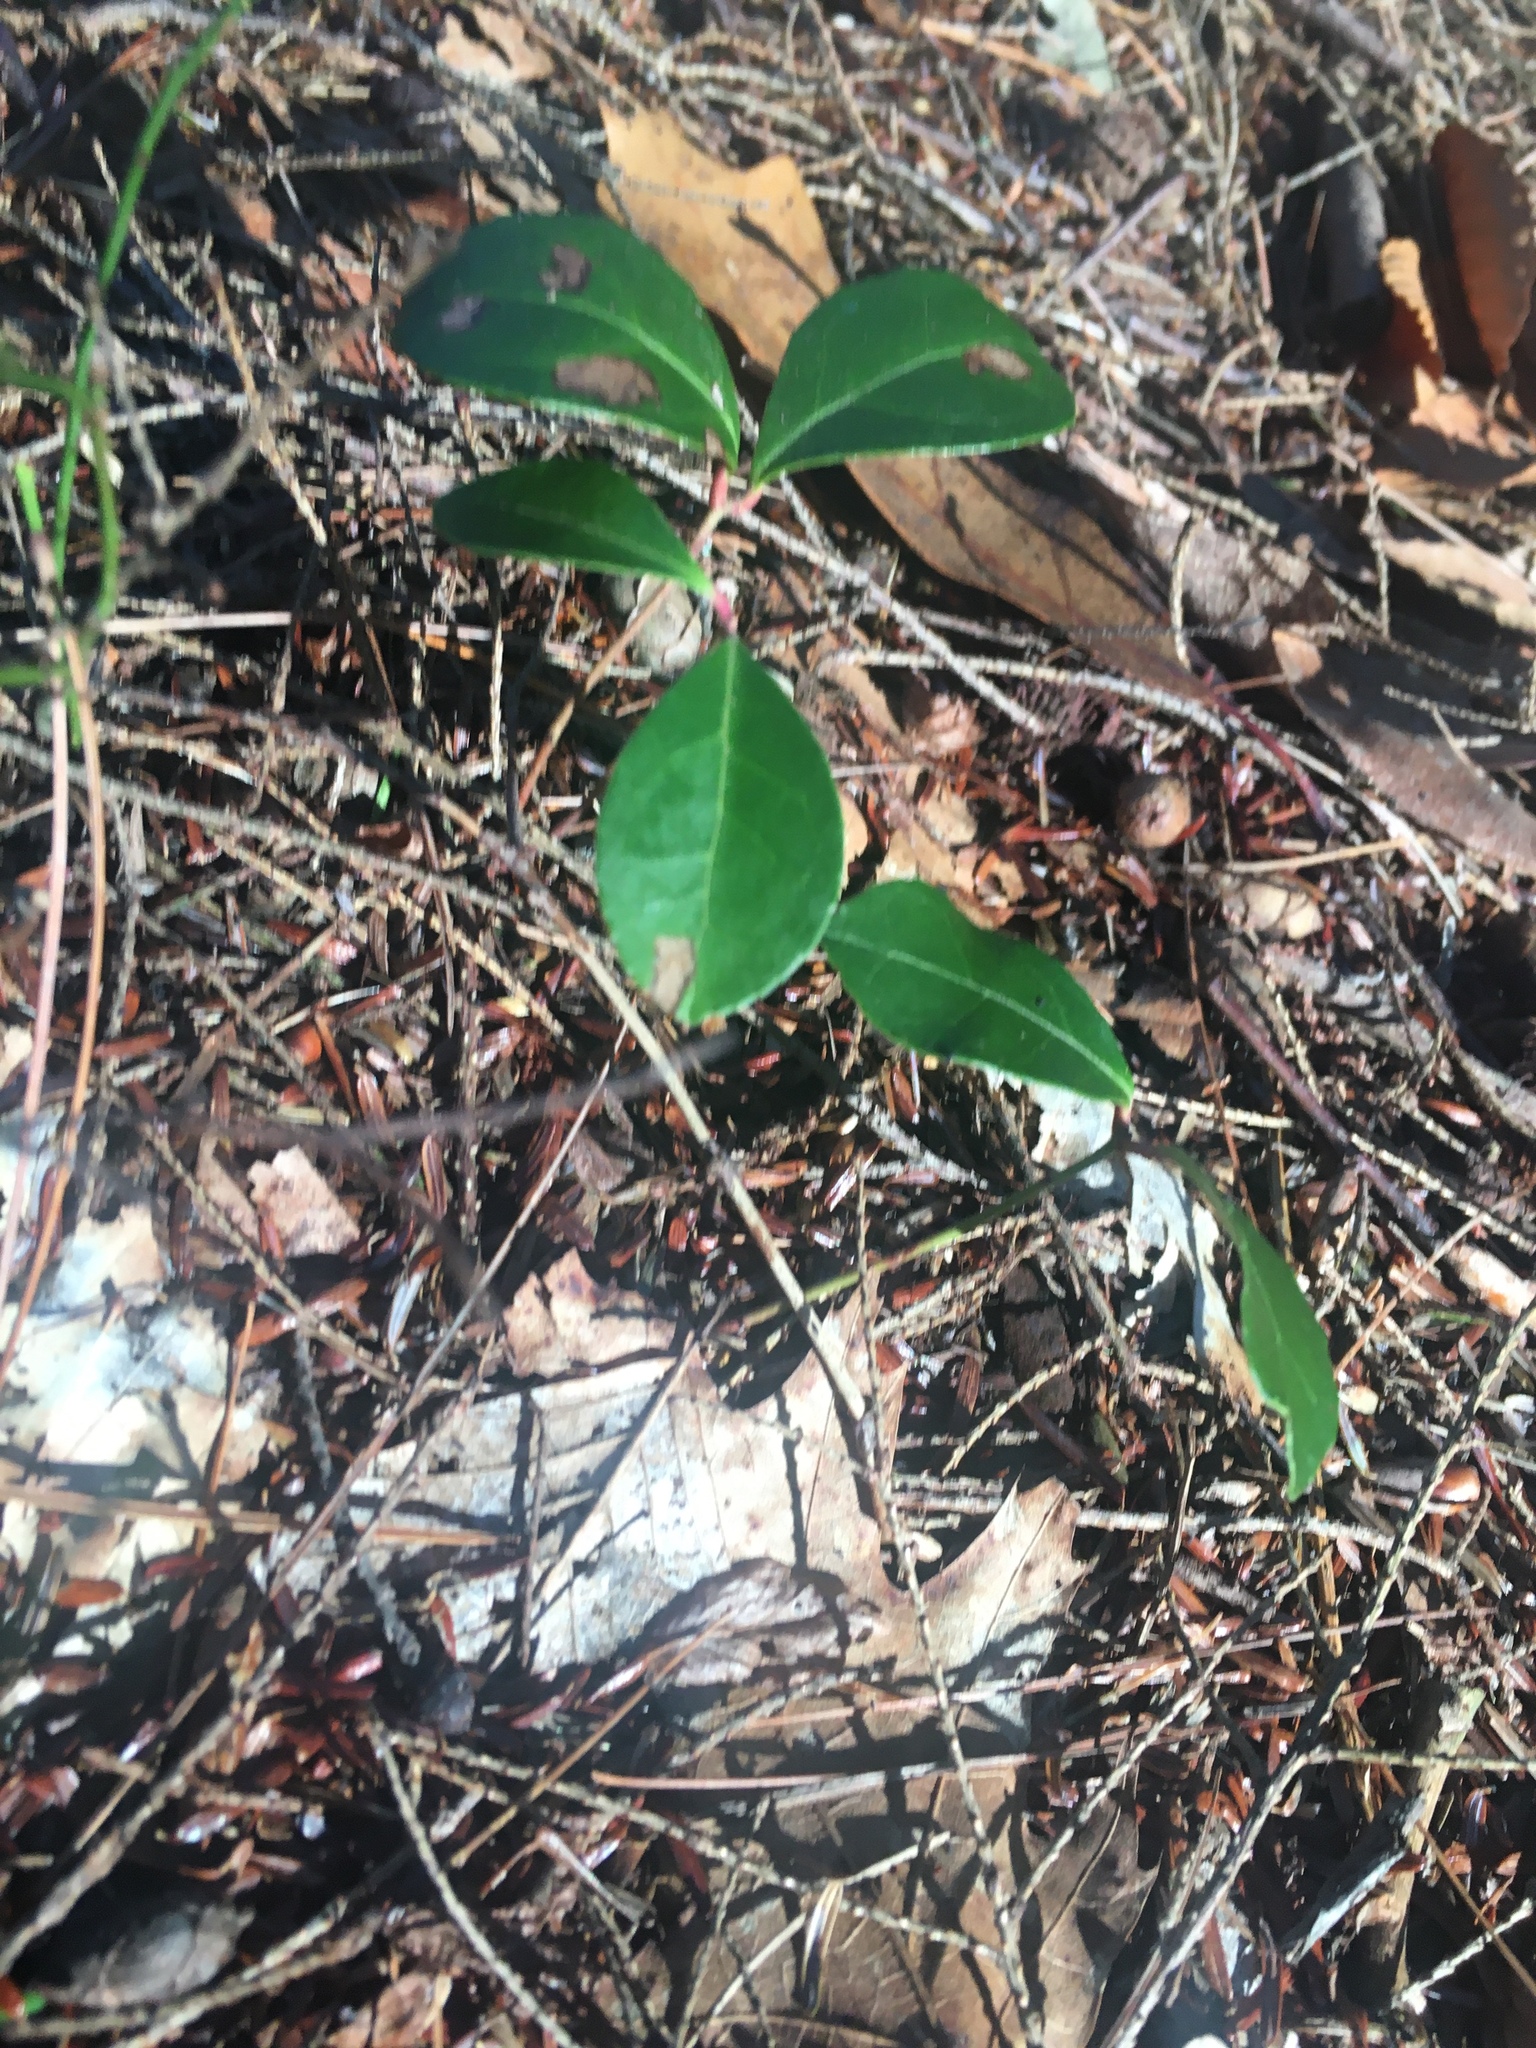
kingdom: Plantae
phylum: Tracheophyta
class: Magnoliopsida
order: Ericales
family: Ericaceae
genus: Gaultheria
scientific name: Gaultheria procumbens
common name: Checkerberry
